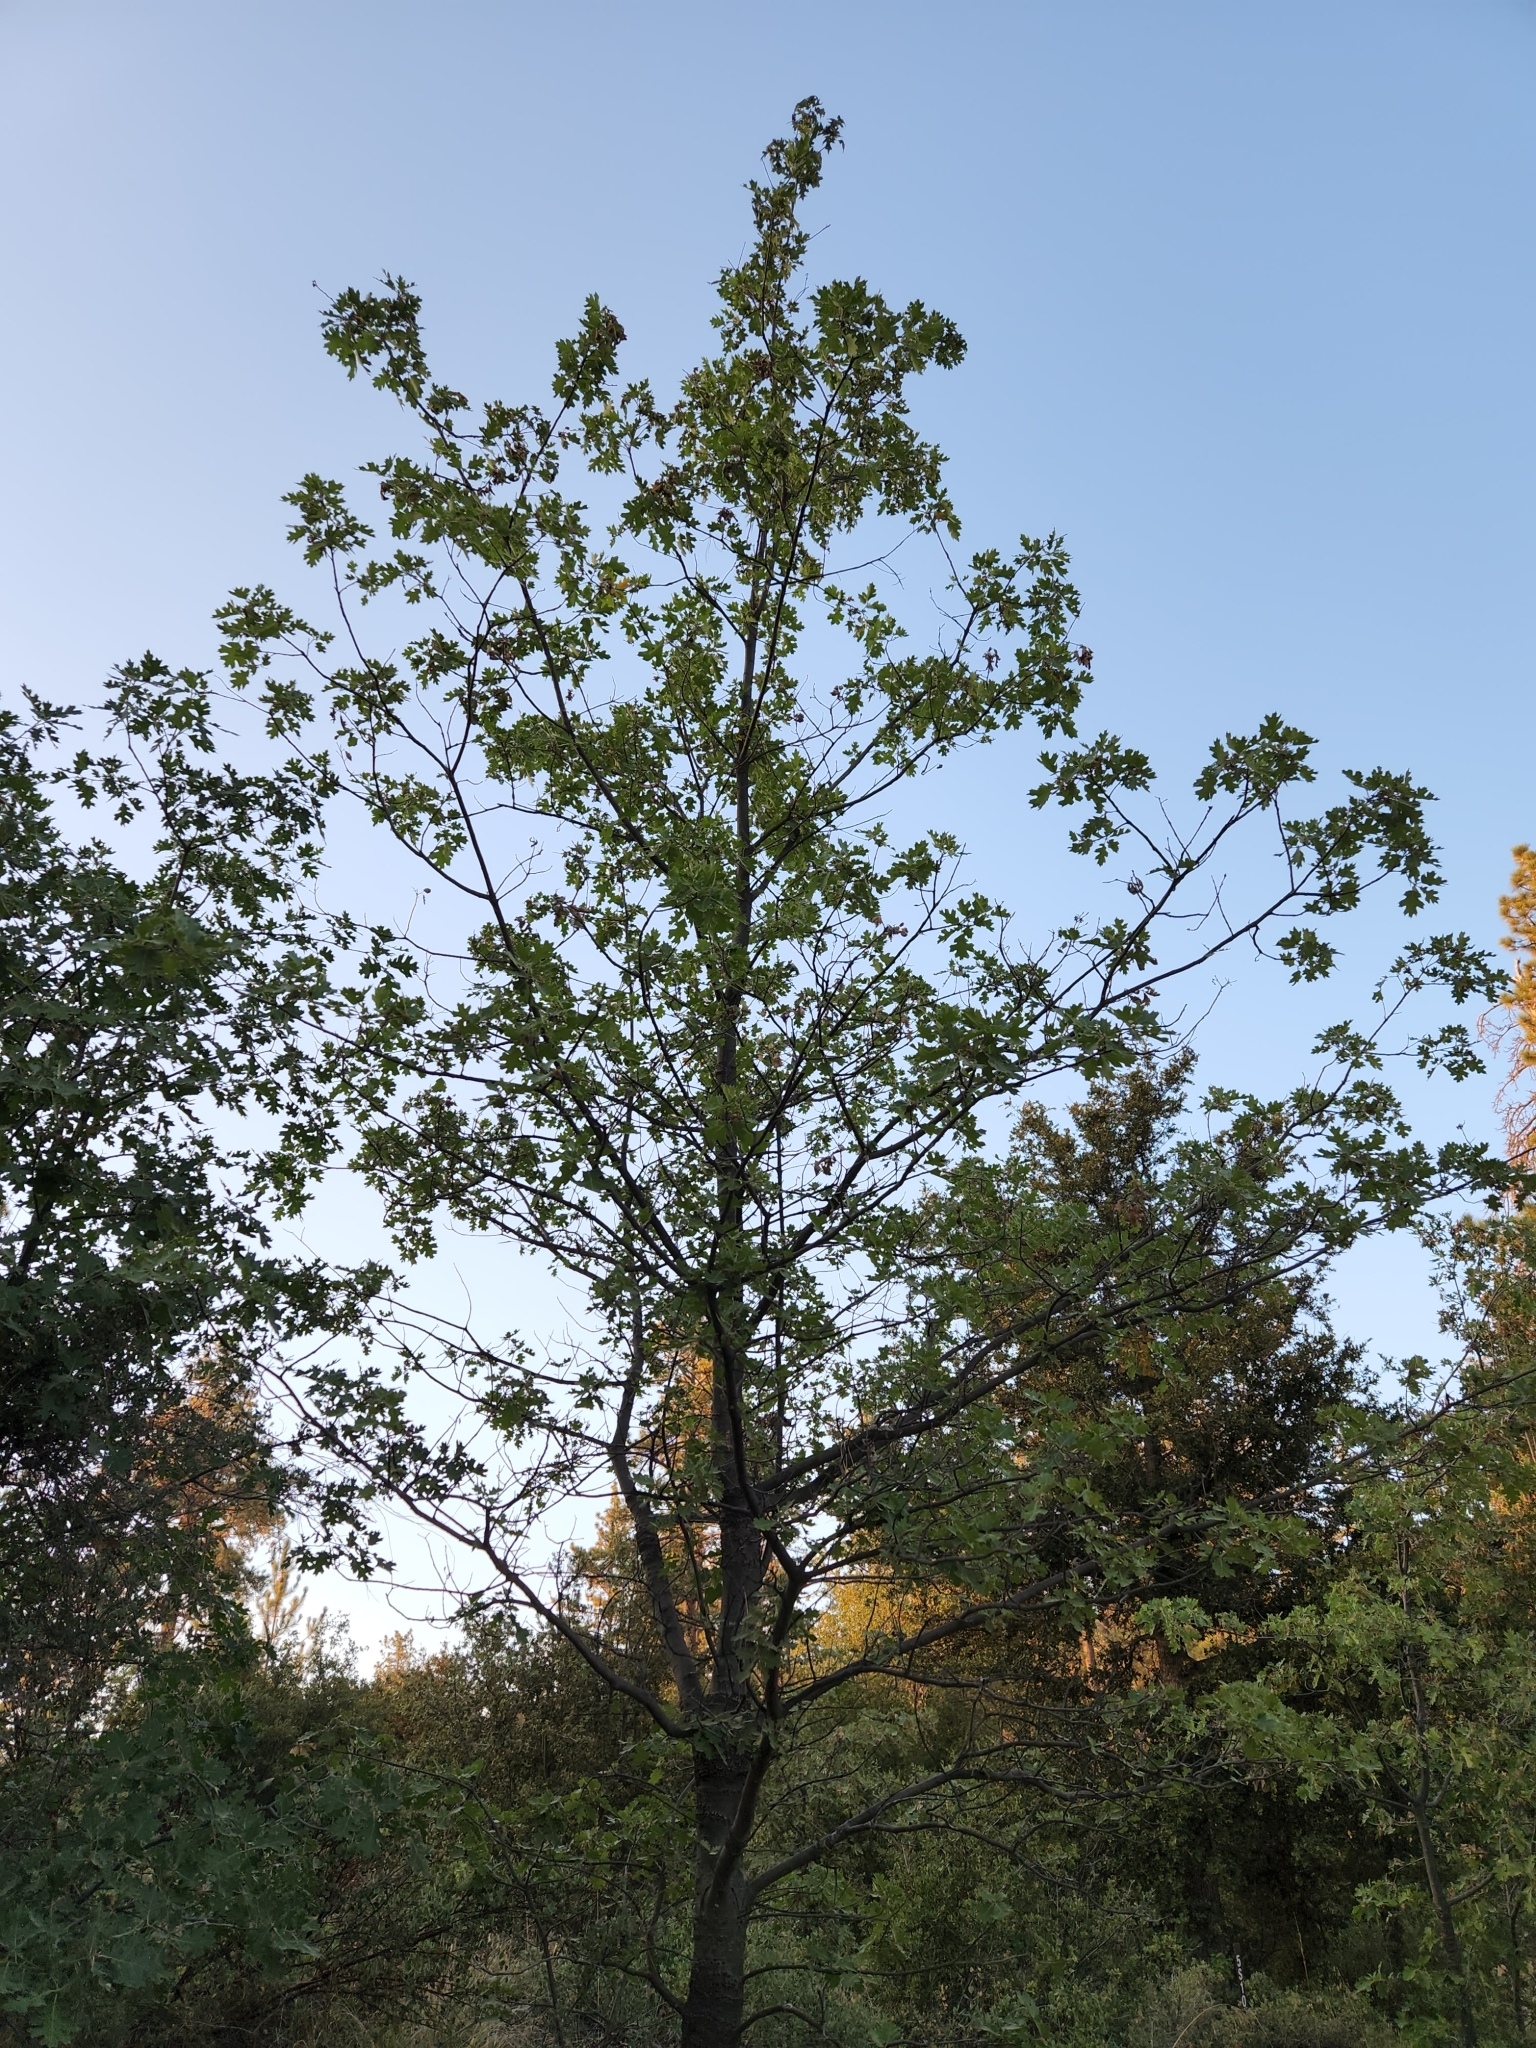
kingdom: Plantae
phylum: Tracheophyta
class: Magnoliopsida
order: Fagales
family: Fagaceae
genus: Quercus
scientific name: Quercus kelloggii
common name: California black oak
